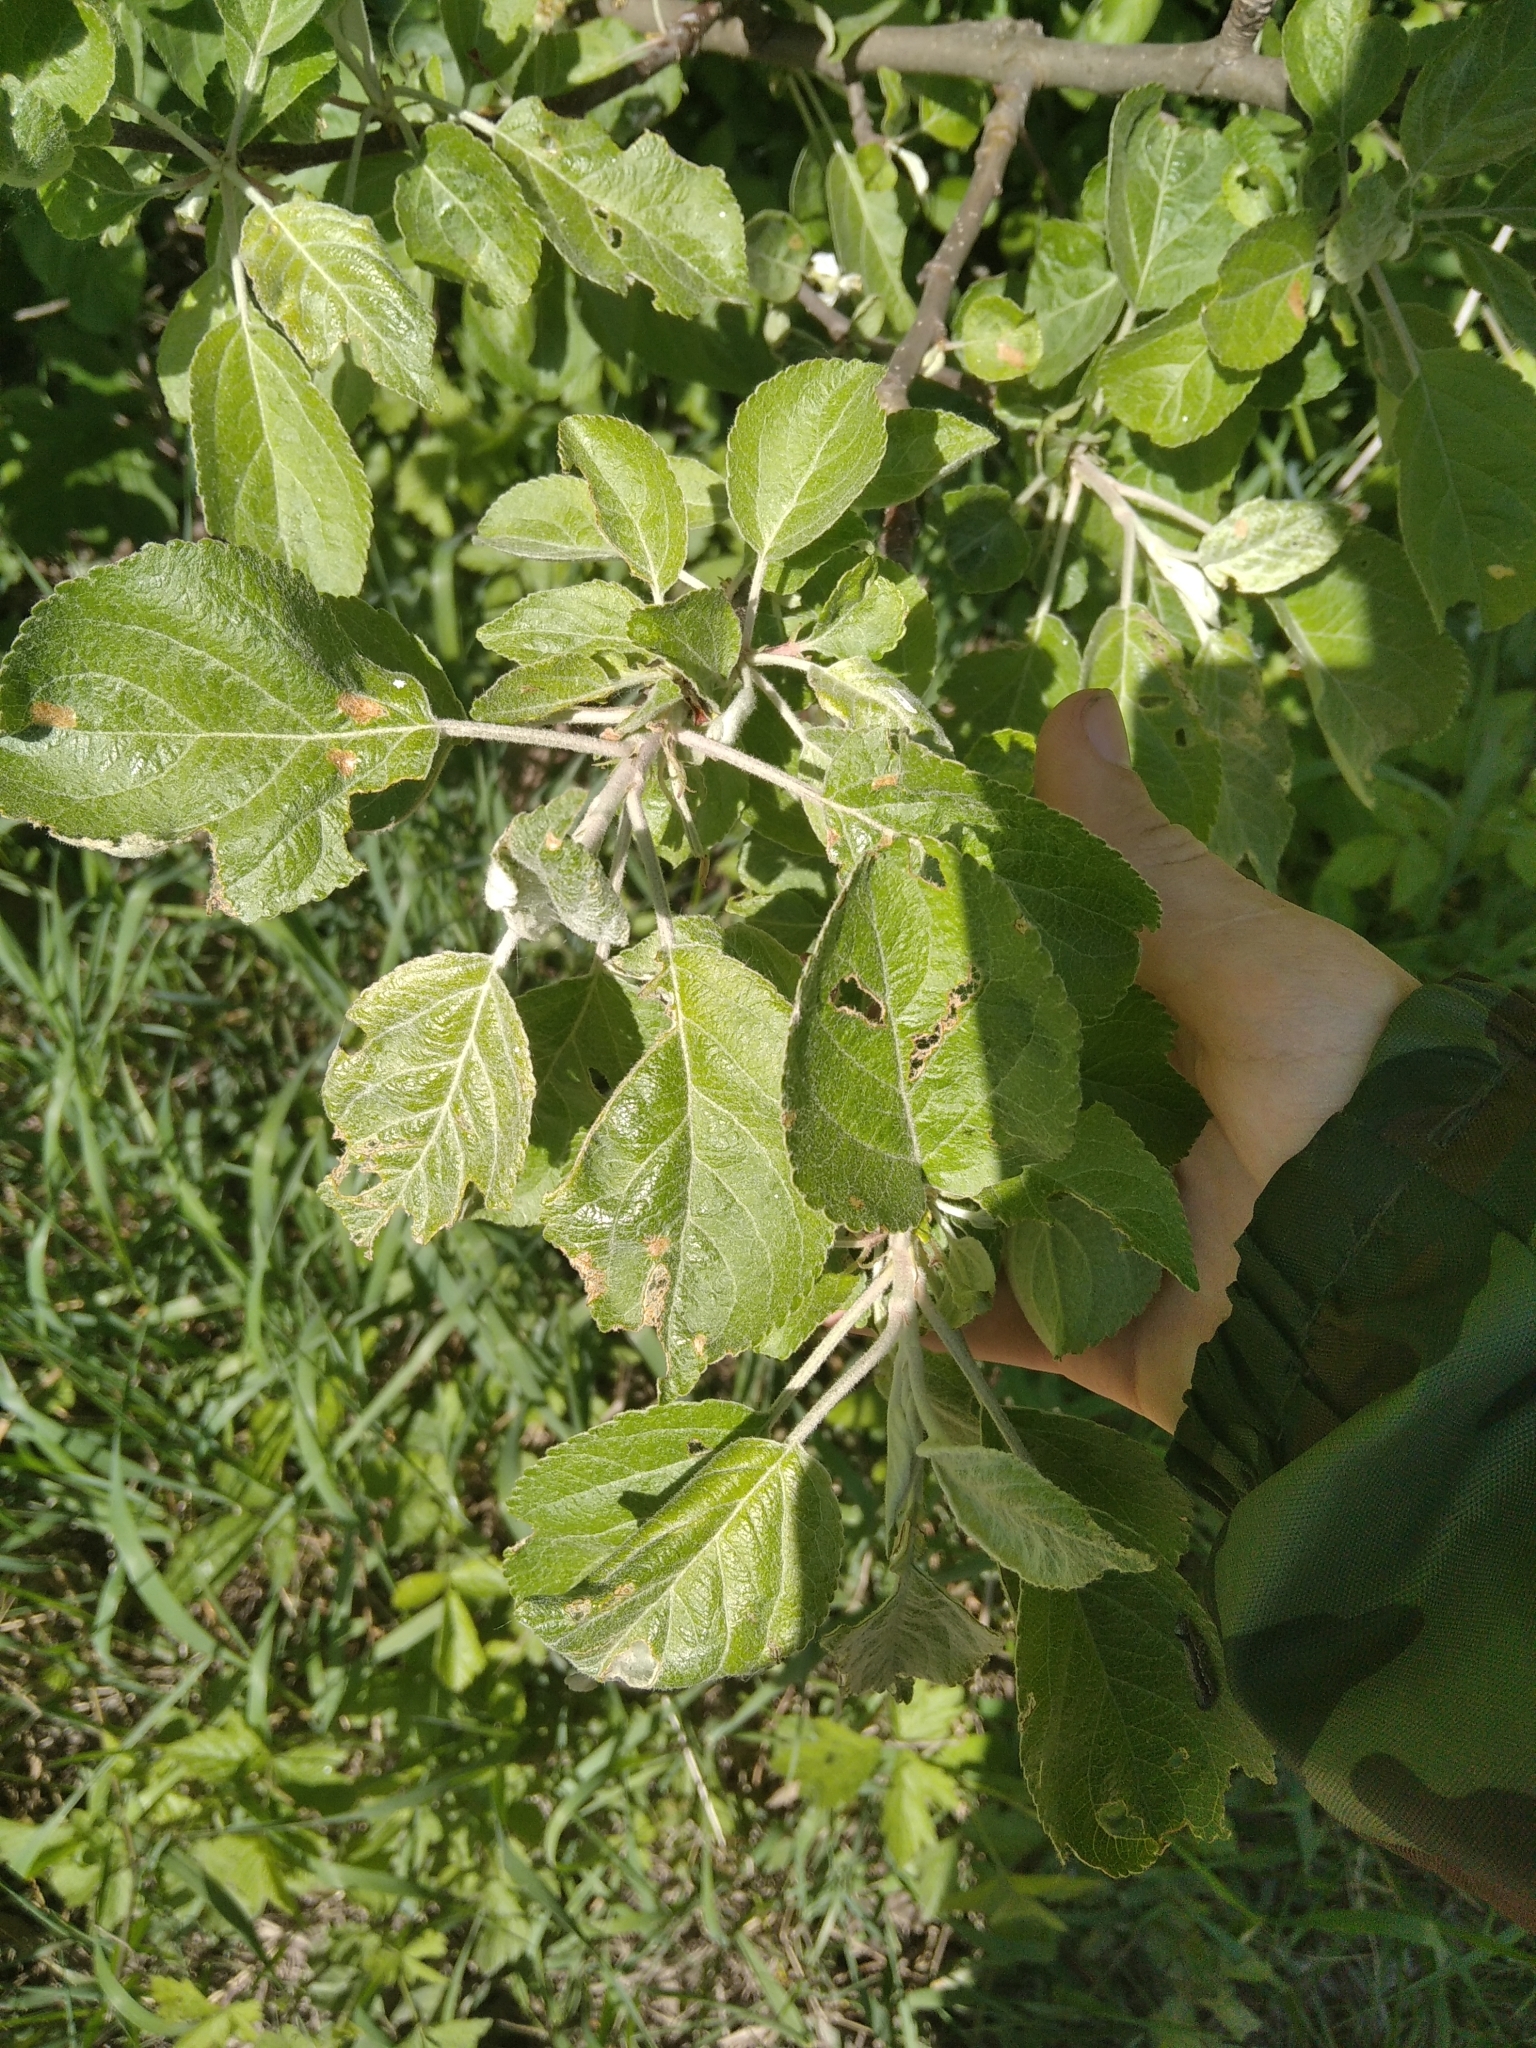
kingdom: Plantae
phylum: Tracheophyta
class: Magnoliopsida
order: Rosales
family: Rosaceae
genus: Malus
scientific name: Malus domestica
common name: Apple
